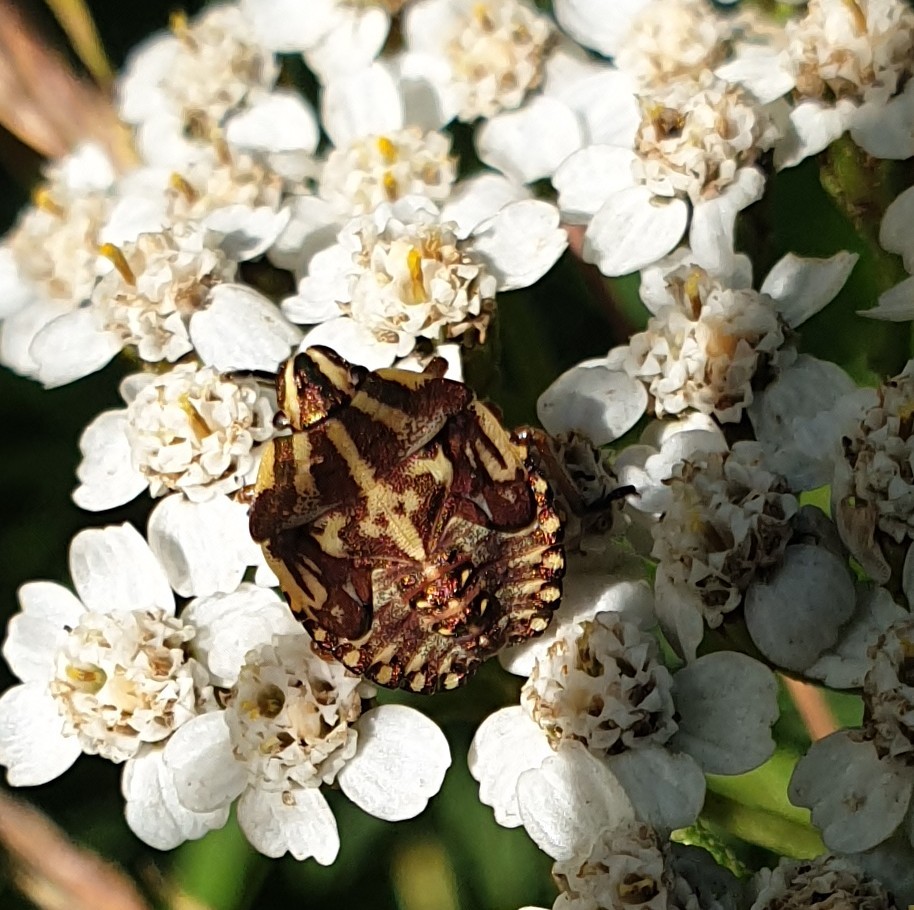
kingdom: Animalia
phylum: Arthropoda
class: Insecta
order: Hemiptera
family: Pentatomidae
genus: Carpocoris
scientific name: Carpocoris purpureipennis
